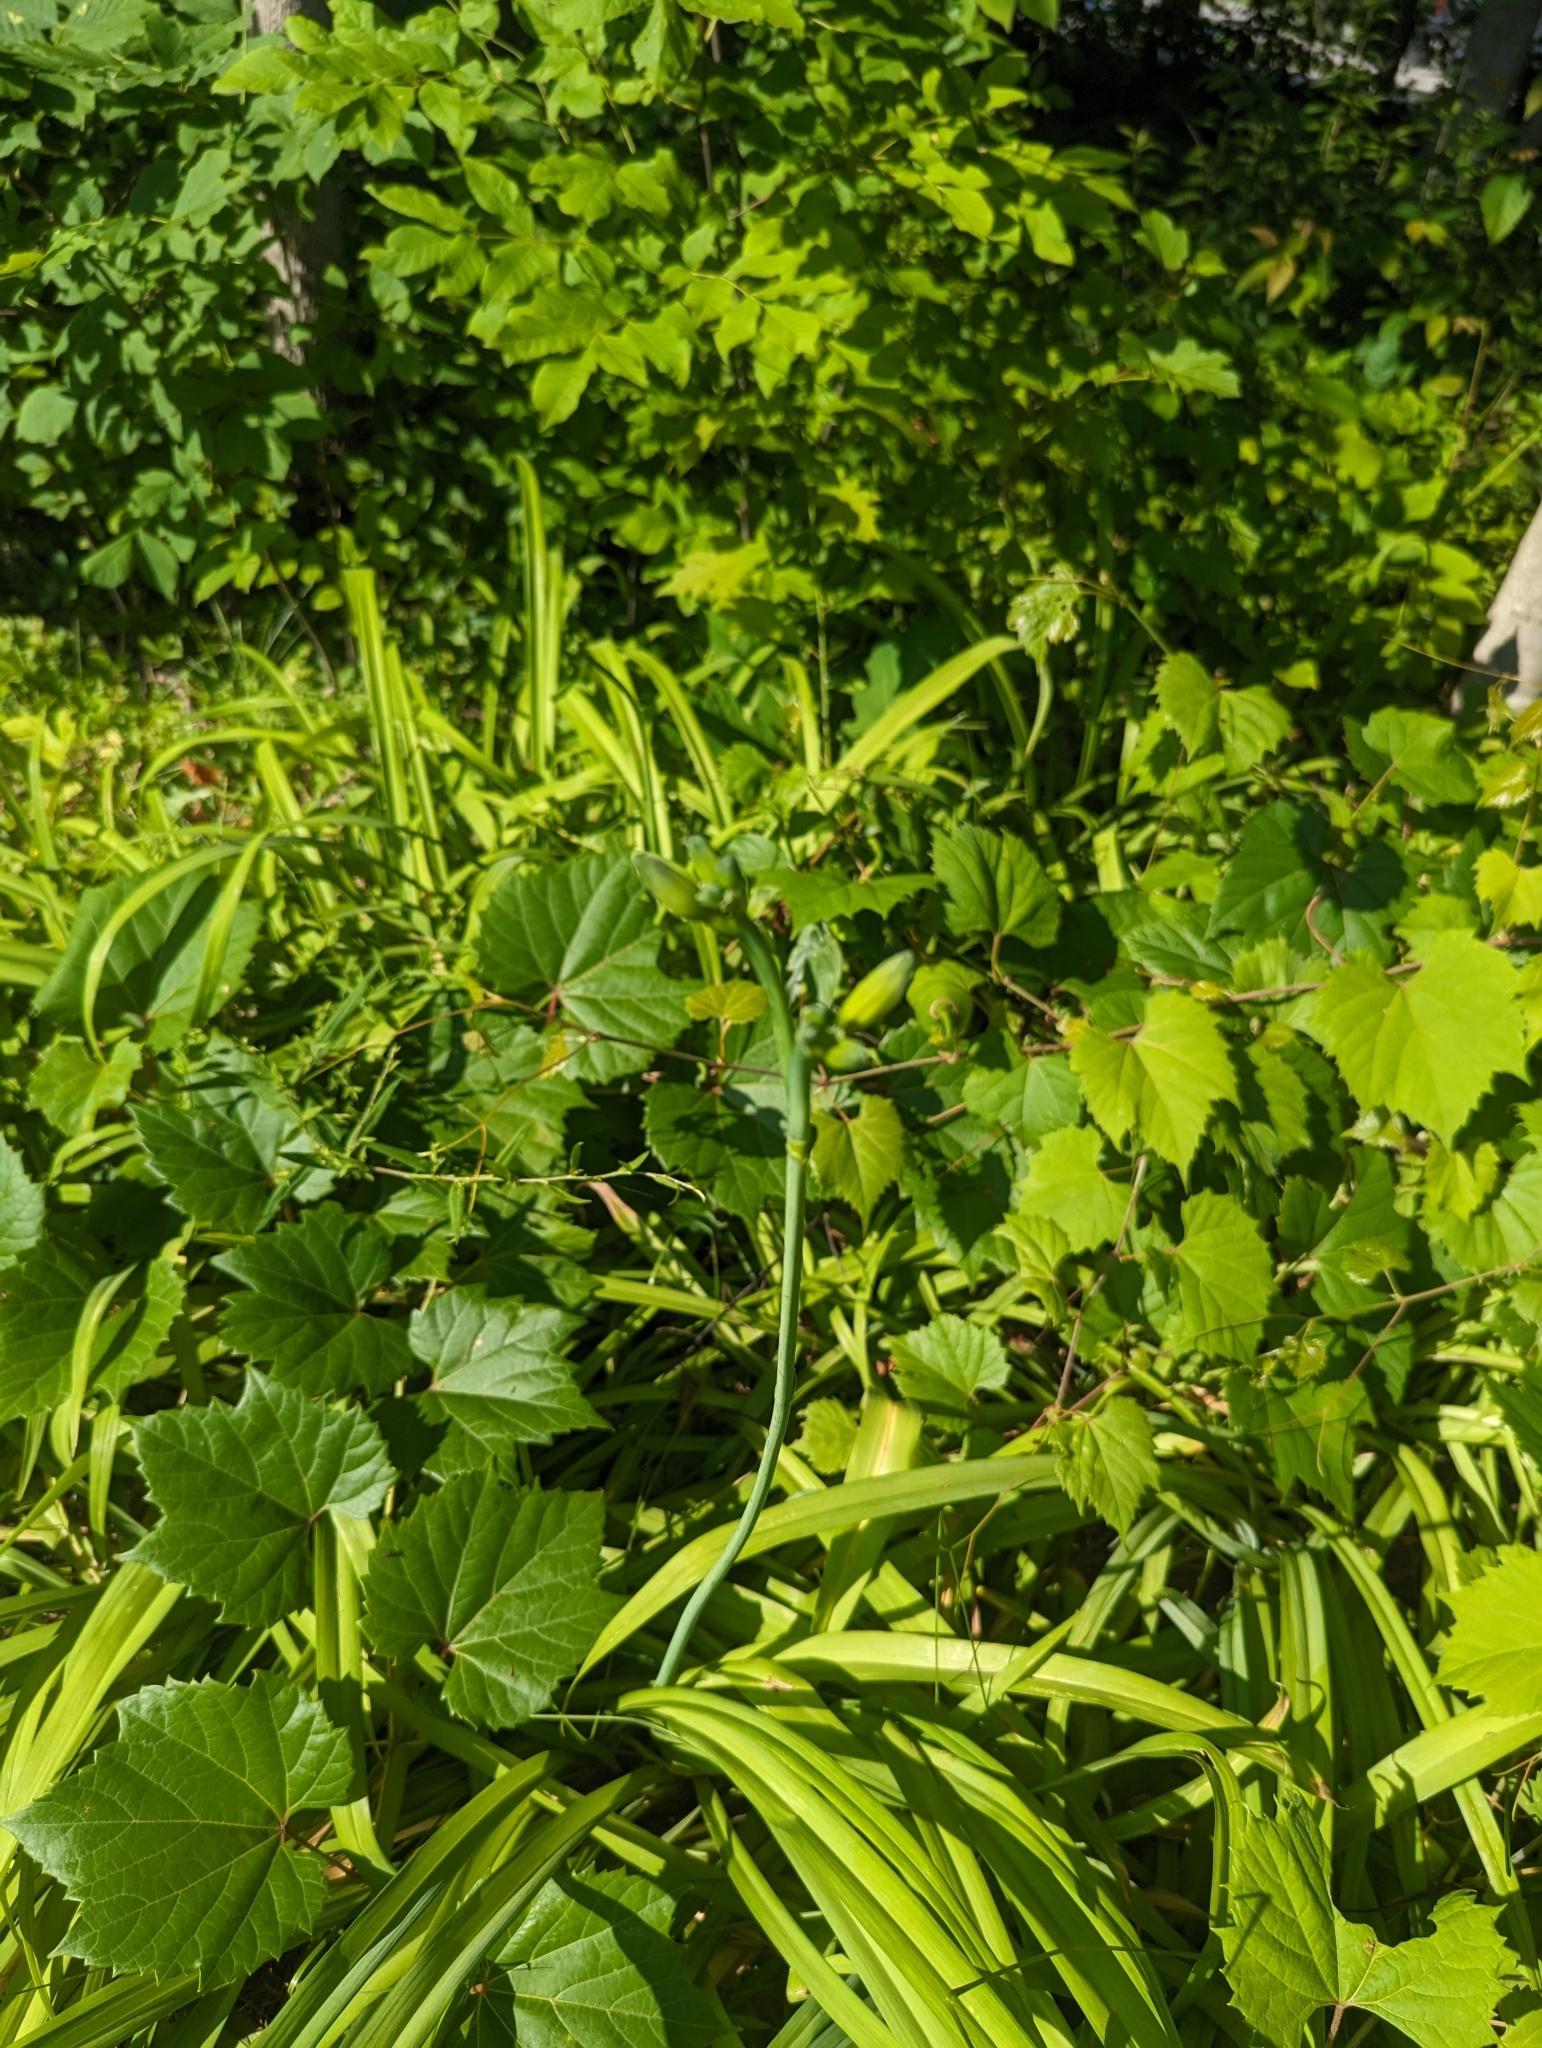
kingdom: Plantae
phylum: Tracheophyta
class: Liliopsida
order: Asparagales
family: Asphodelaceae
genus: Hemerocallis
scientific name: Hemerocallis fulva
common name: Orange day-lily
